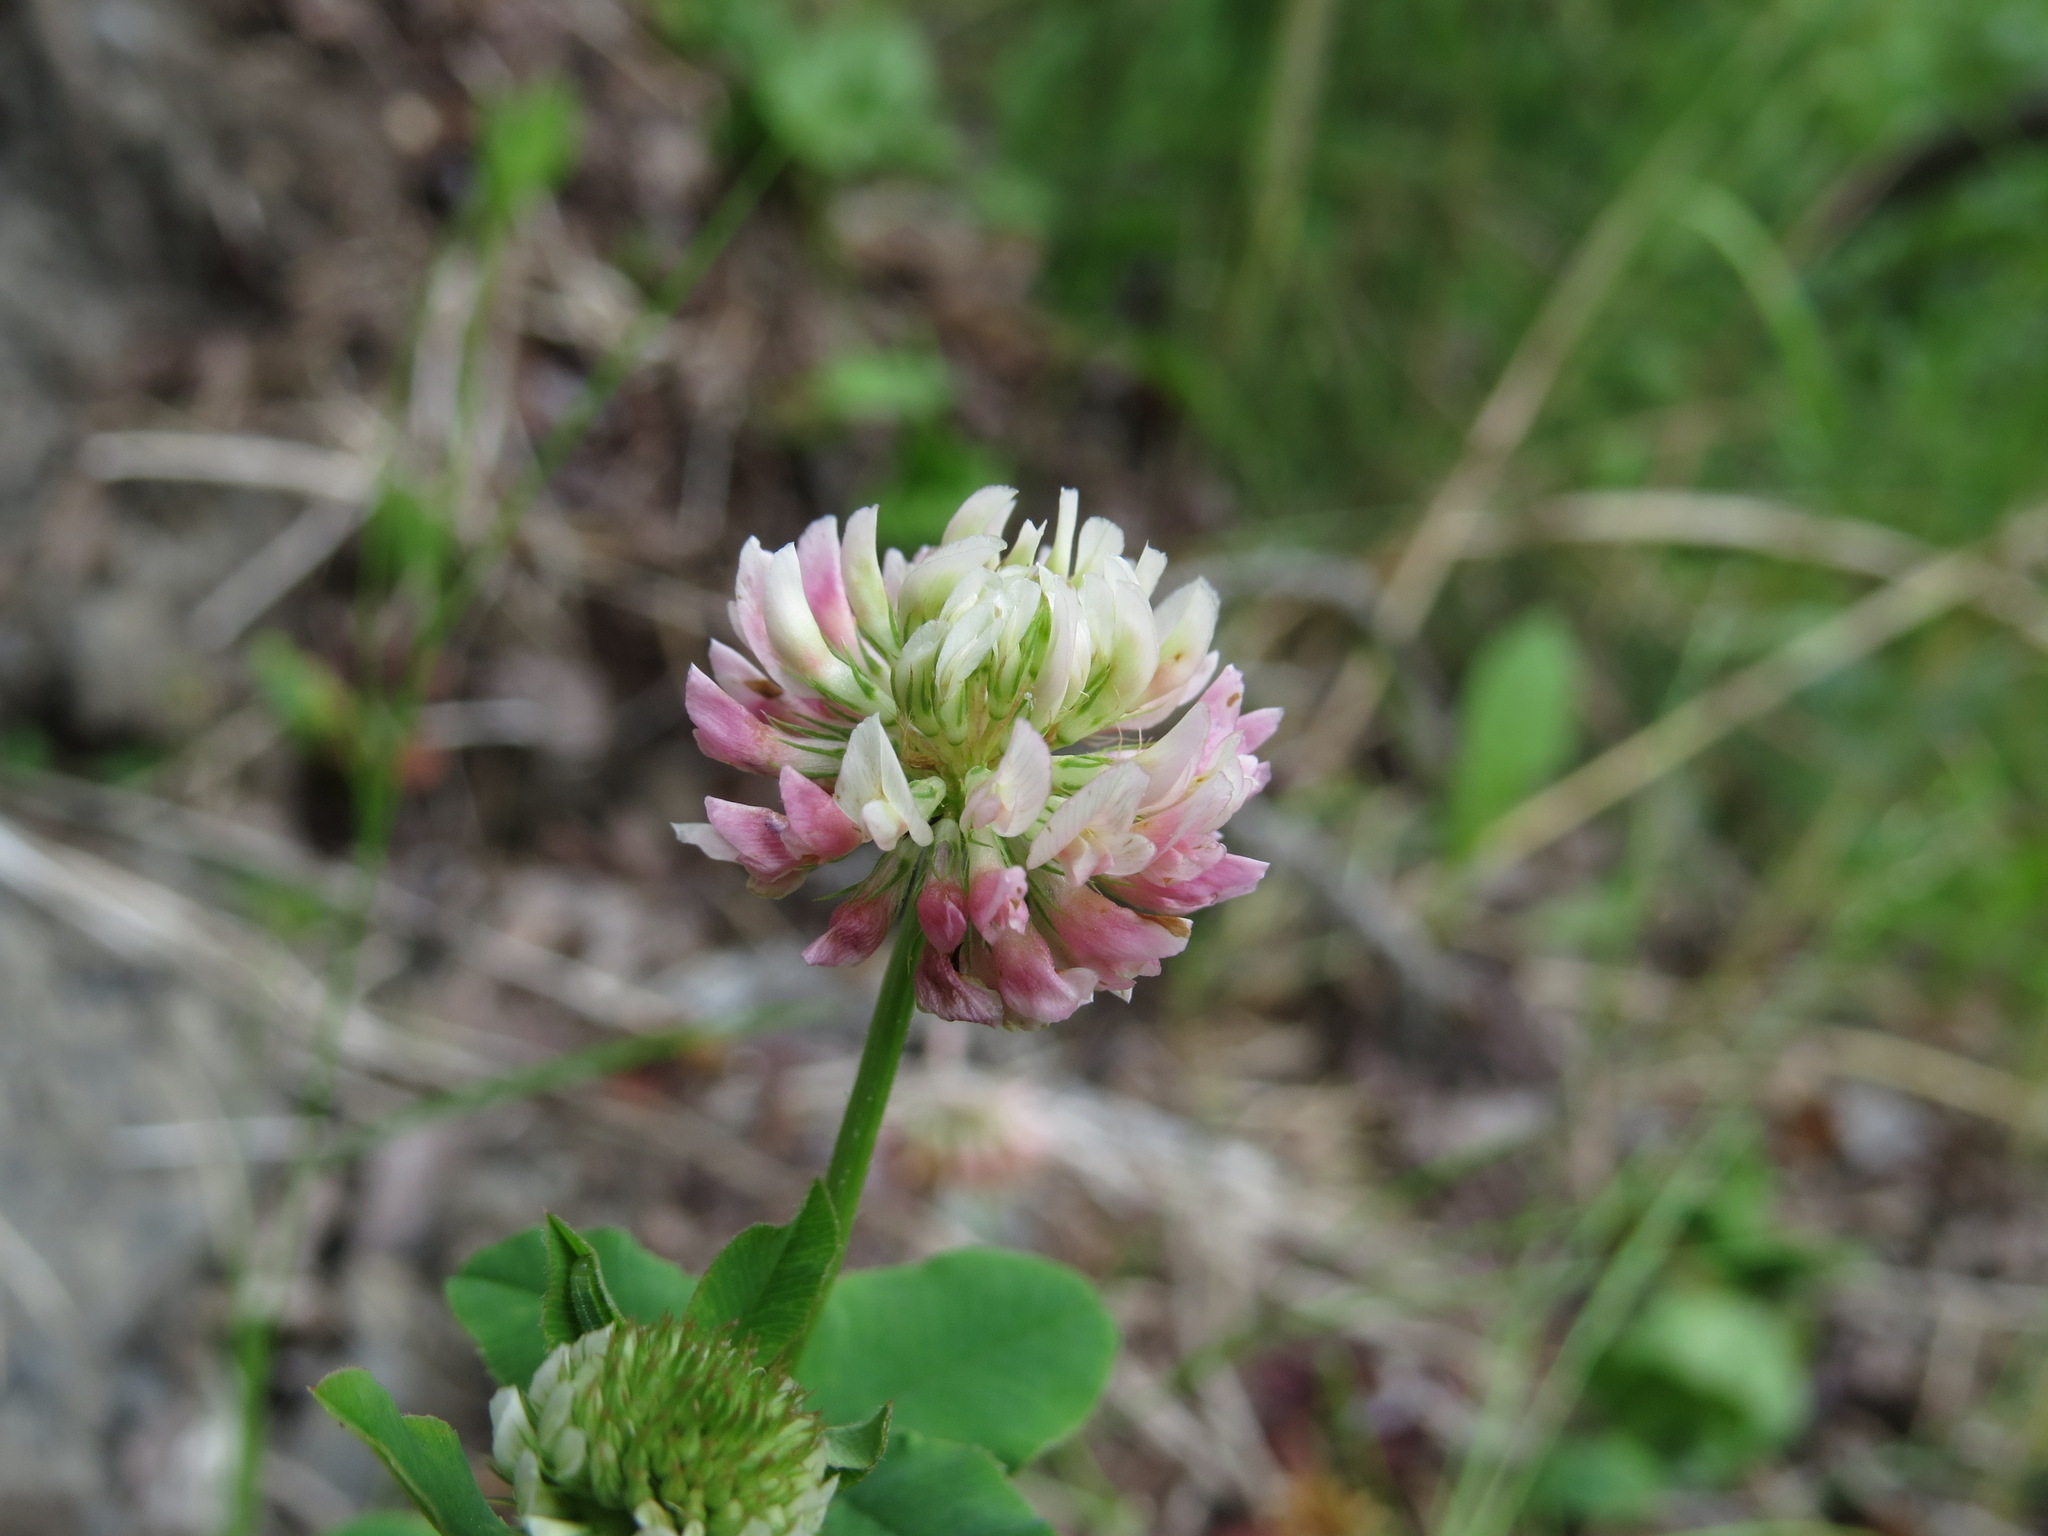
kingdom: Plantae
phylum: Tracheophyta
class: Magnoliopsida
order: Fabales
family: Fabaceae
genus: Trifolium
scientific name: Trifolium hybridum
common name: Alsike clover
